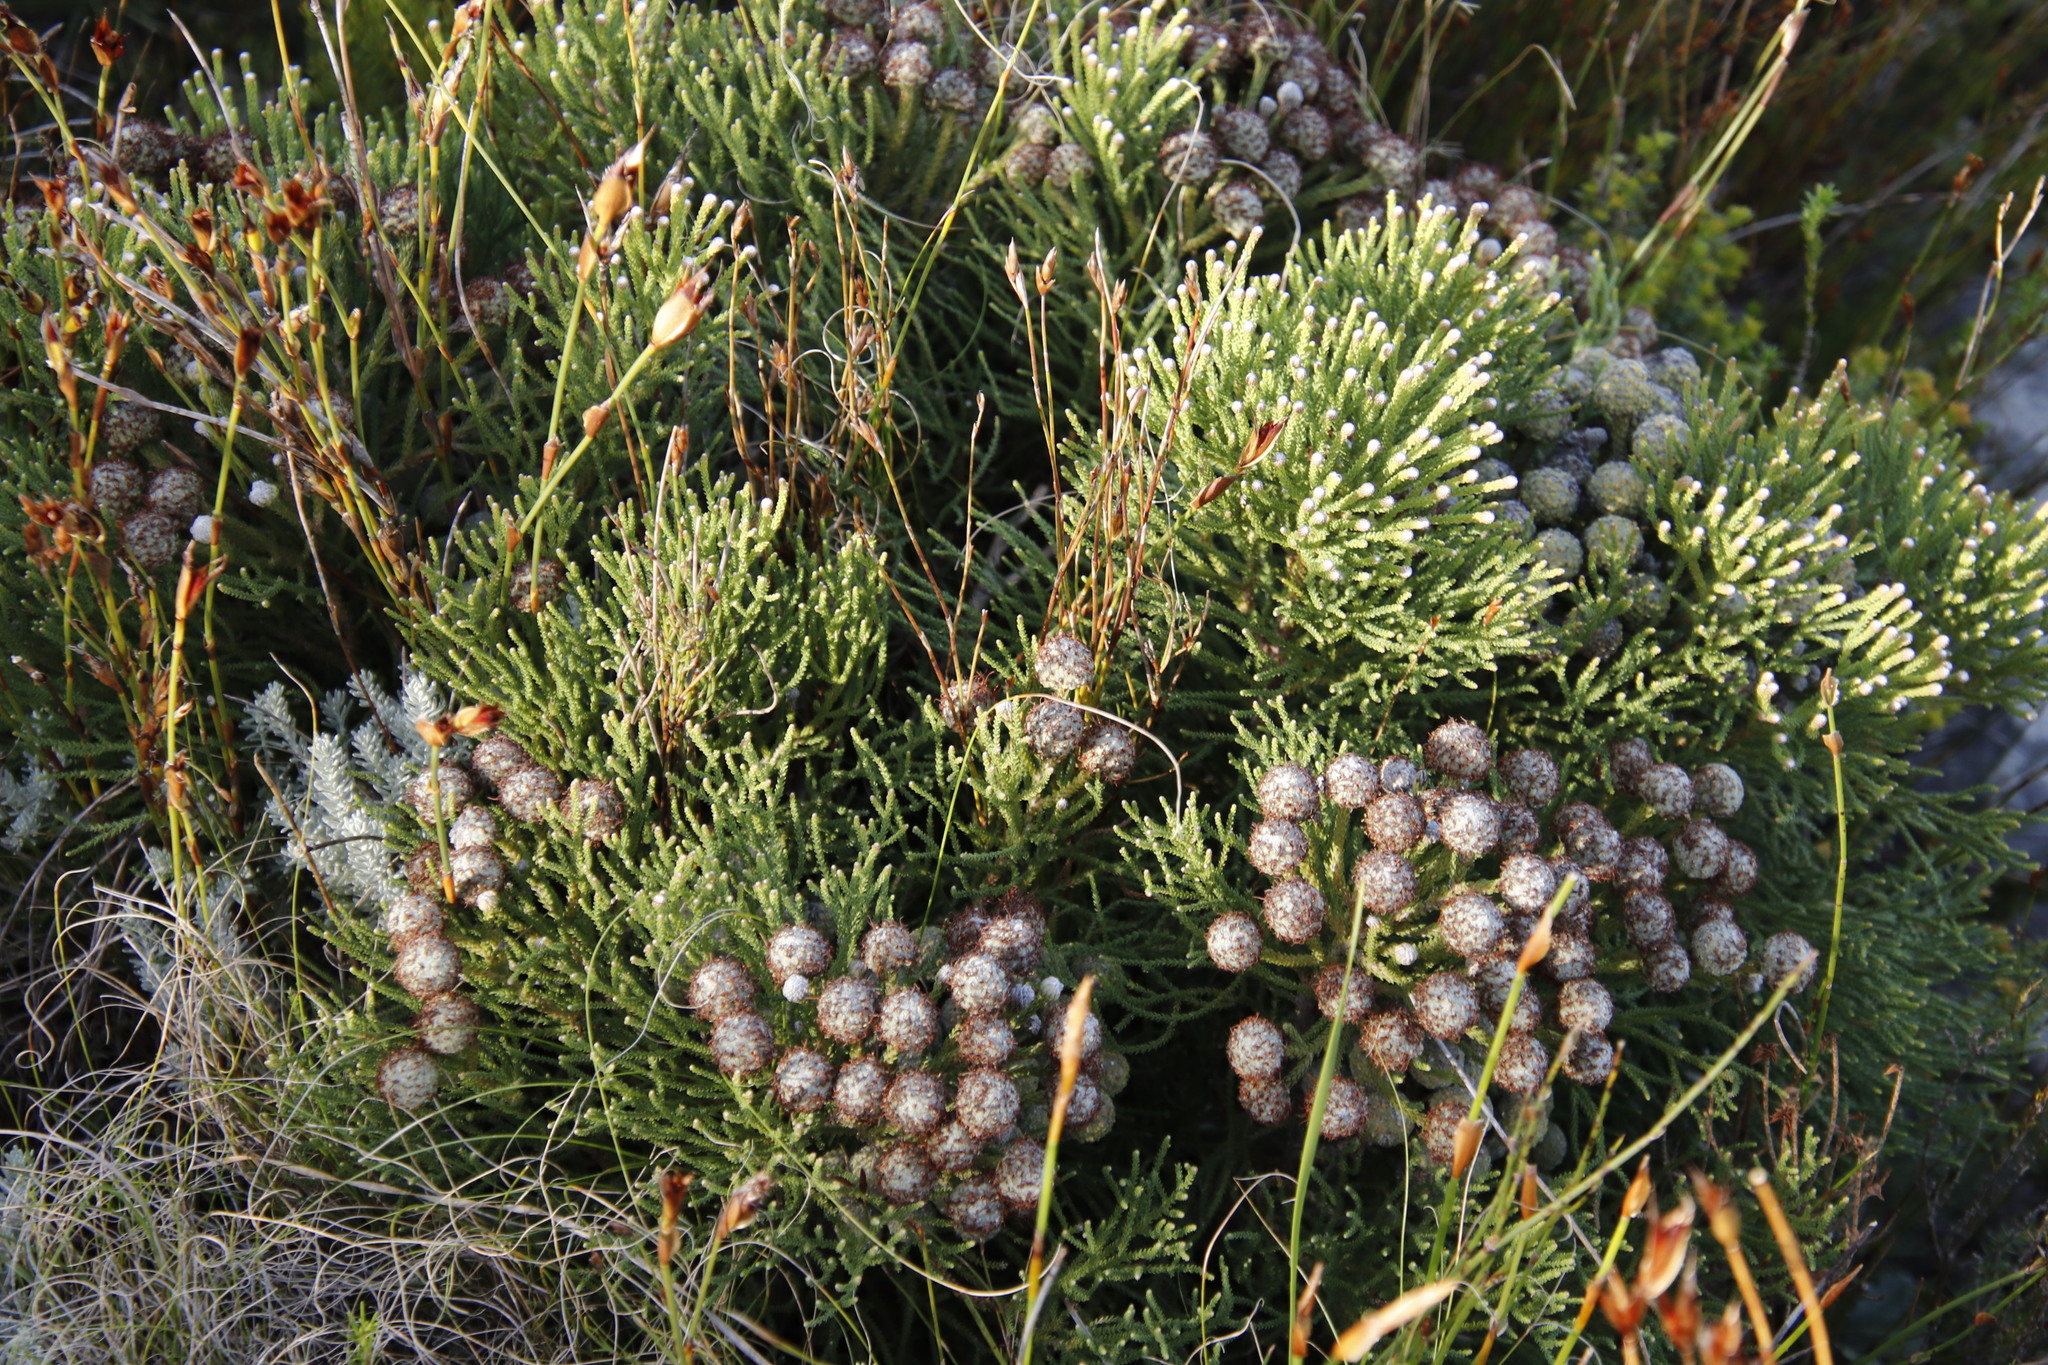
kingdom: Plantae
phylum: Tracheophyta
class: Magnoliopsida
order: Bruniales
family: Bruniaceae
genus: Brunia
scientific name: Brunia noduliflora
